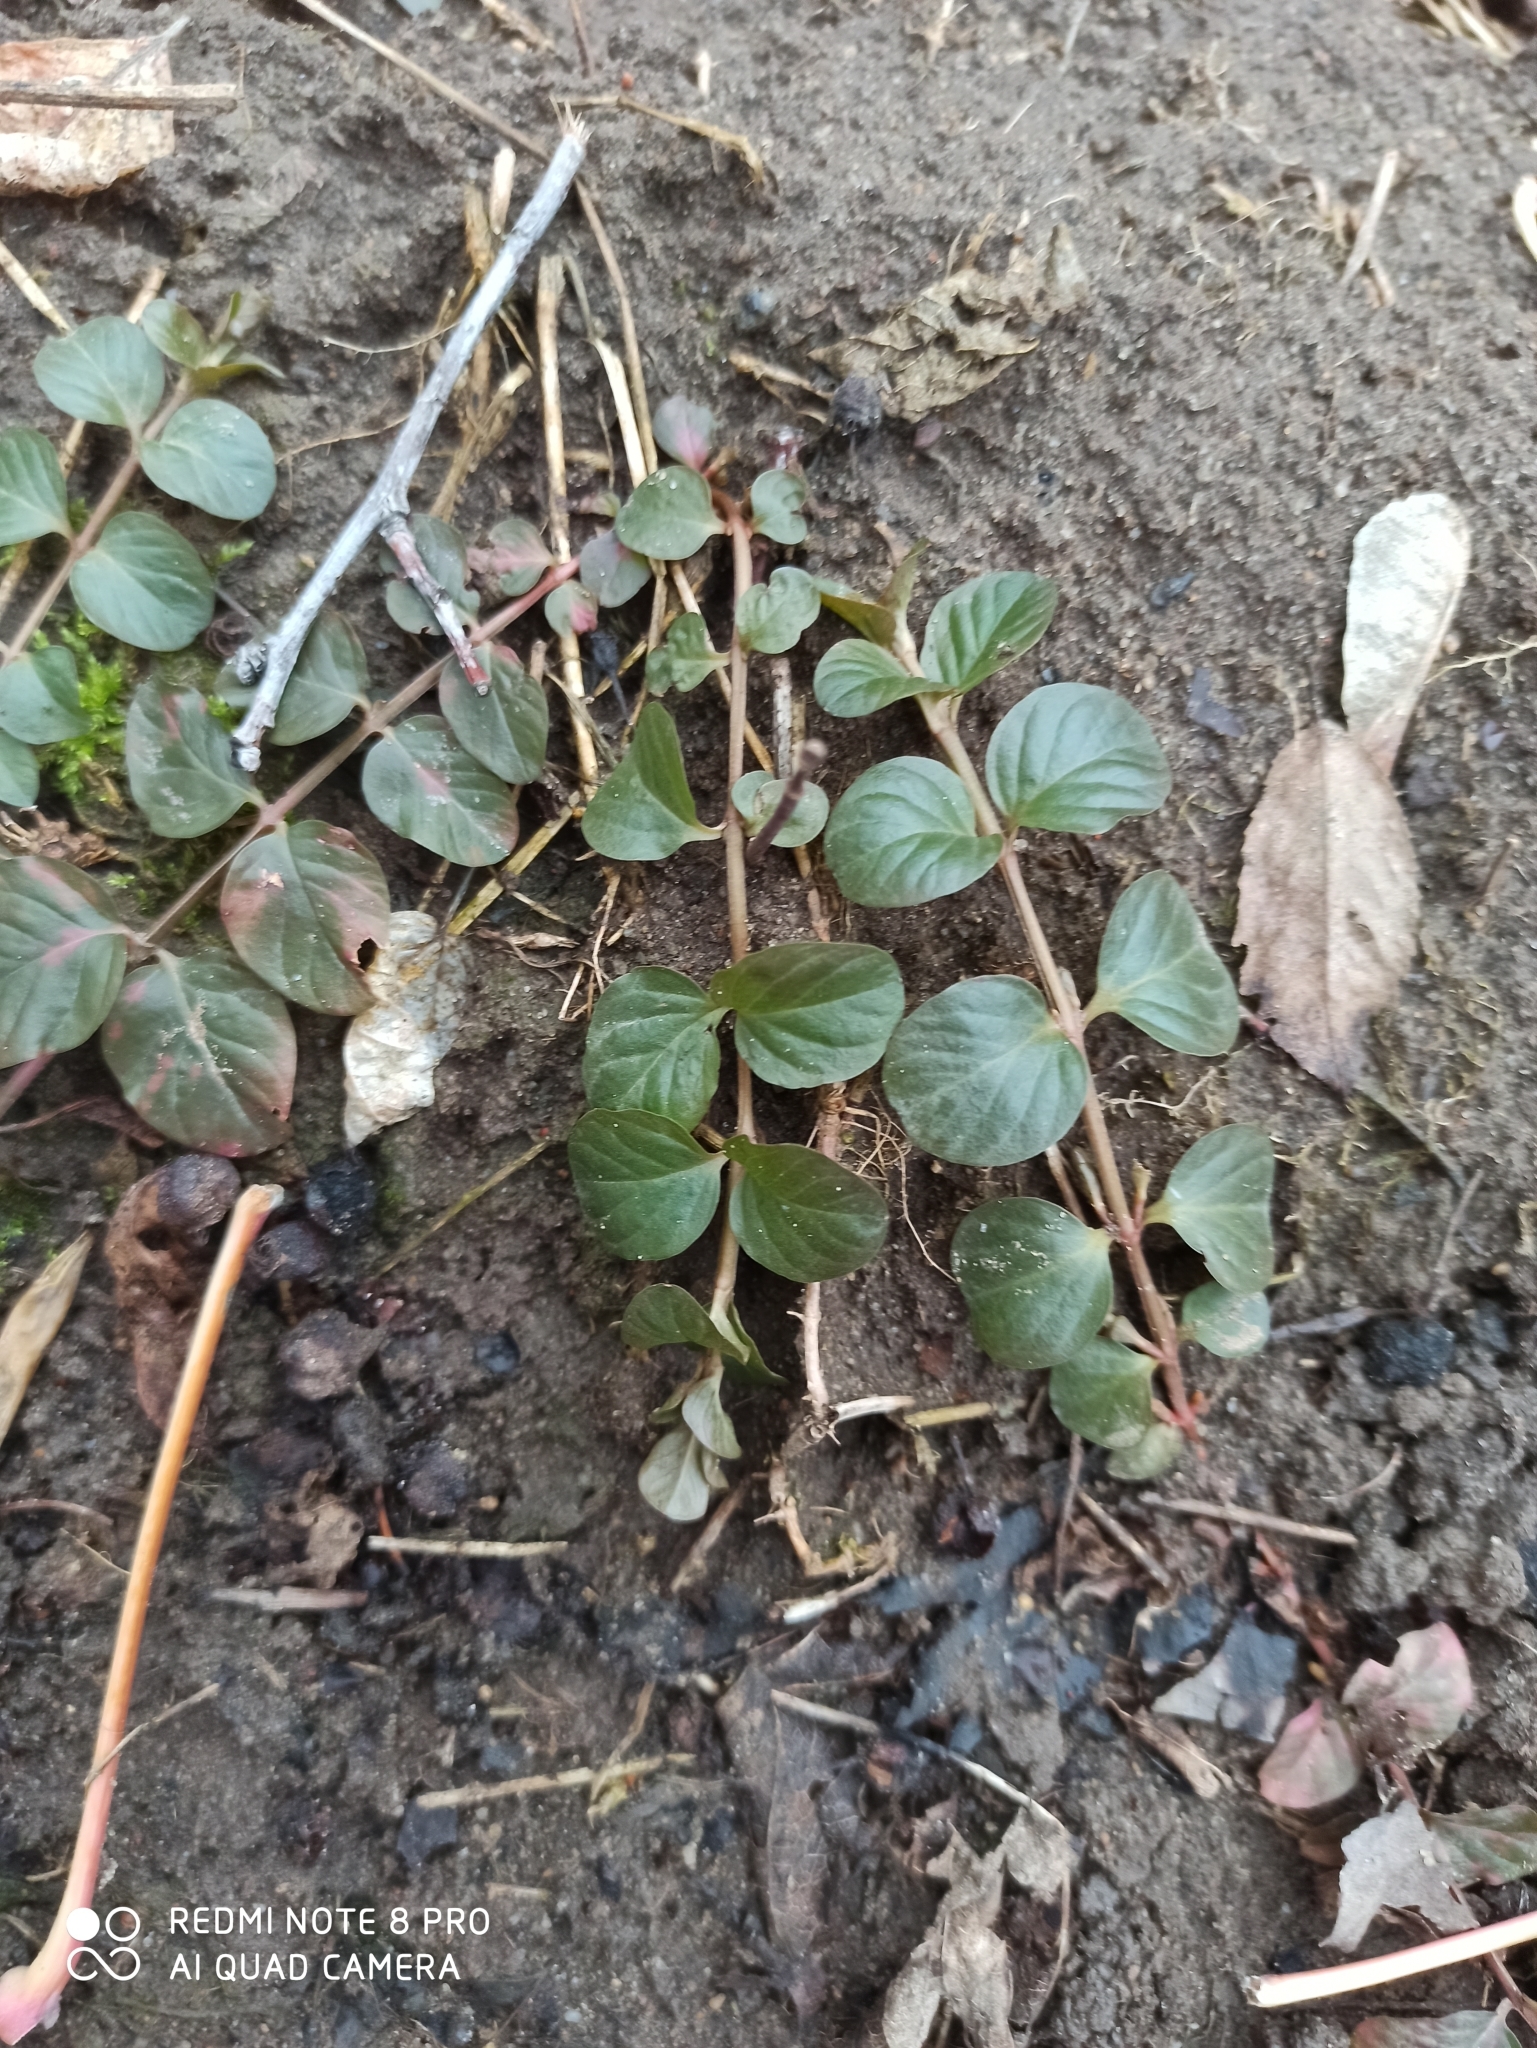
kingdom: Plantae
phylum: Tracheophyta
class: Magnoliopsida
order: Ericales
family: Primulaceae
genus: Lysimachia
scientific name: Lysimachia nummularia
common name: Moneywort
